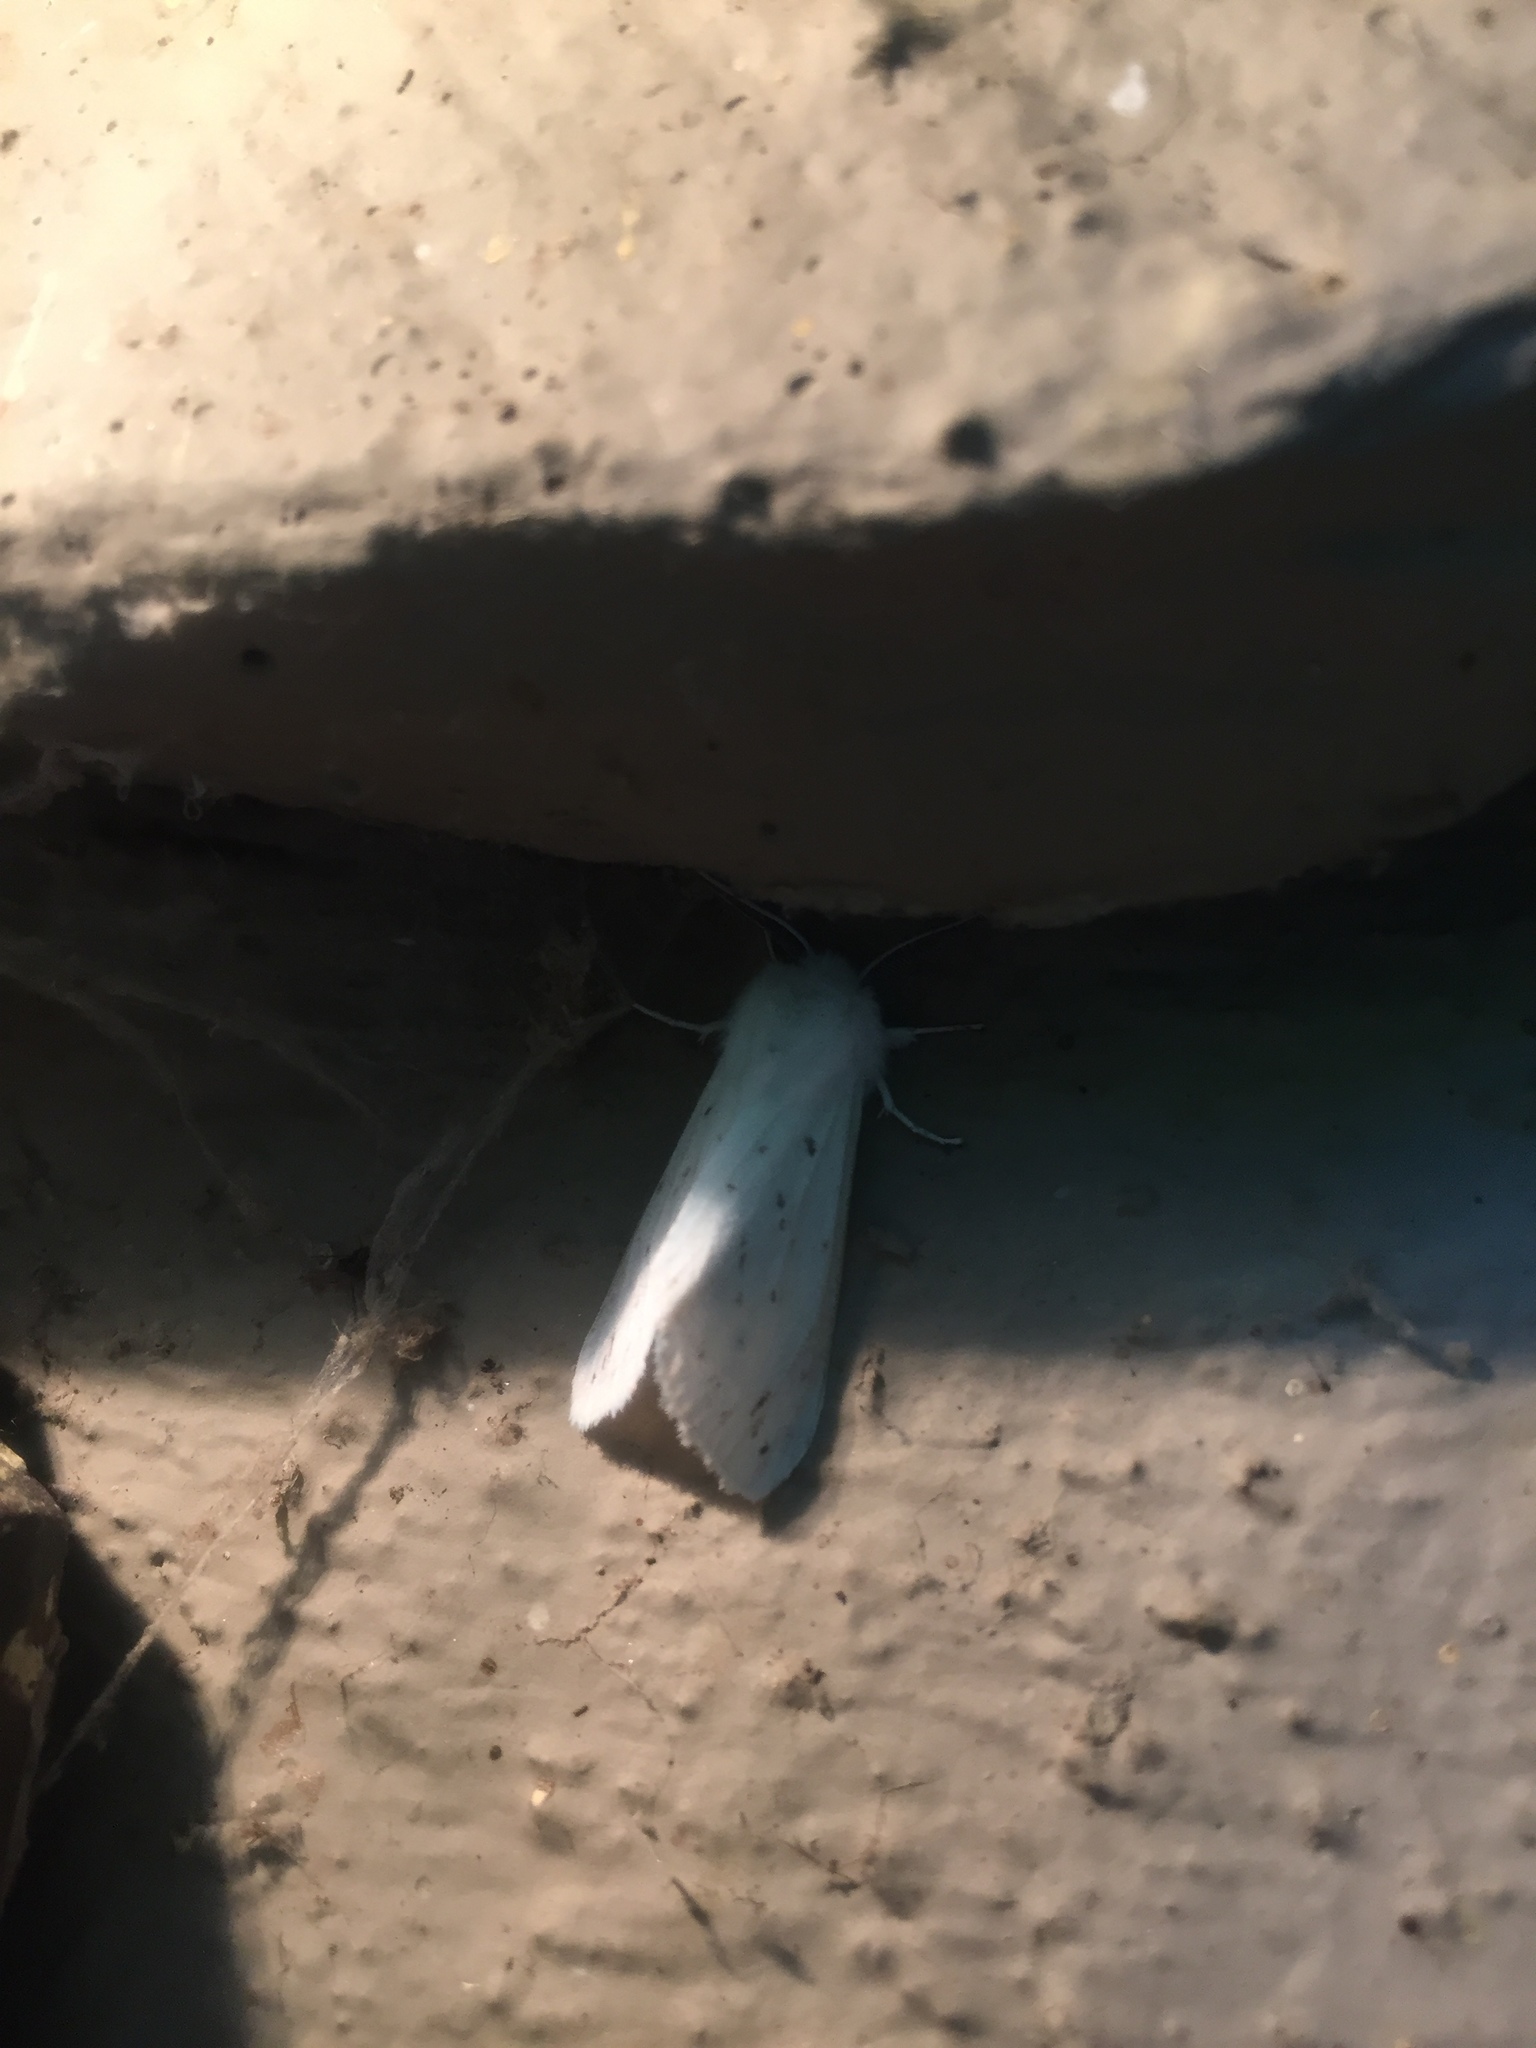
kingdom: Animalia
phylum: Arthropoda
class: Insecta
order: Lepidoptera
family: Erebidae
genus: Spilosoma
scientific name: Spilosoma congrua
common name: Agreeable tiger moth
